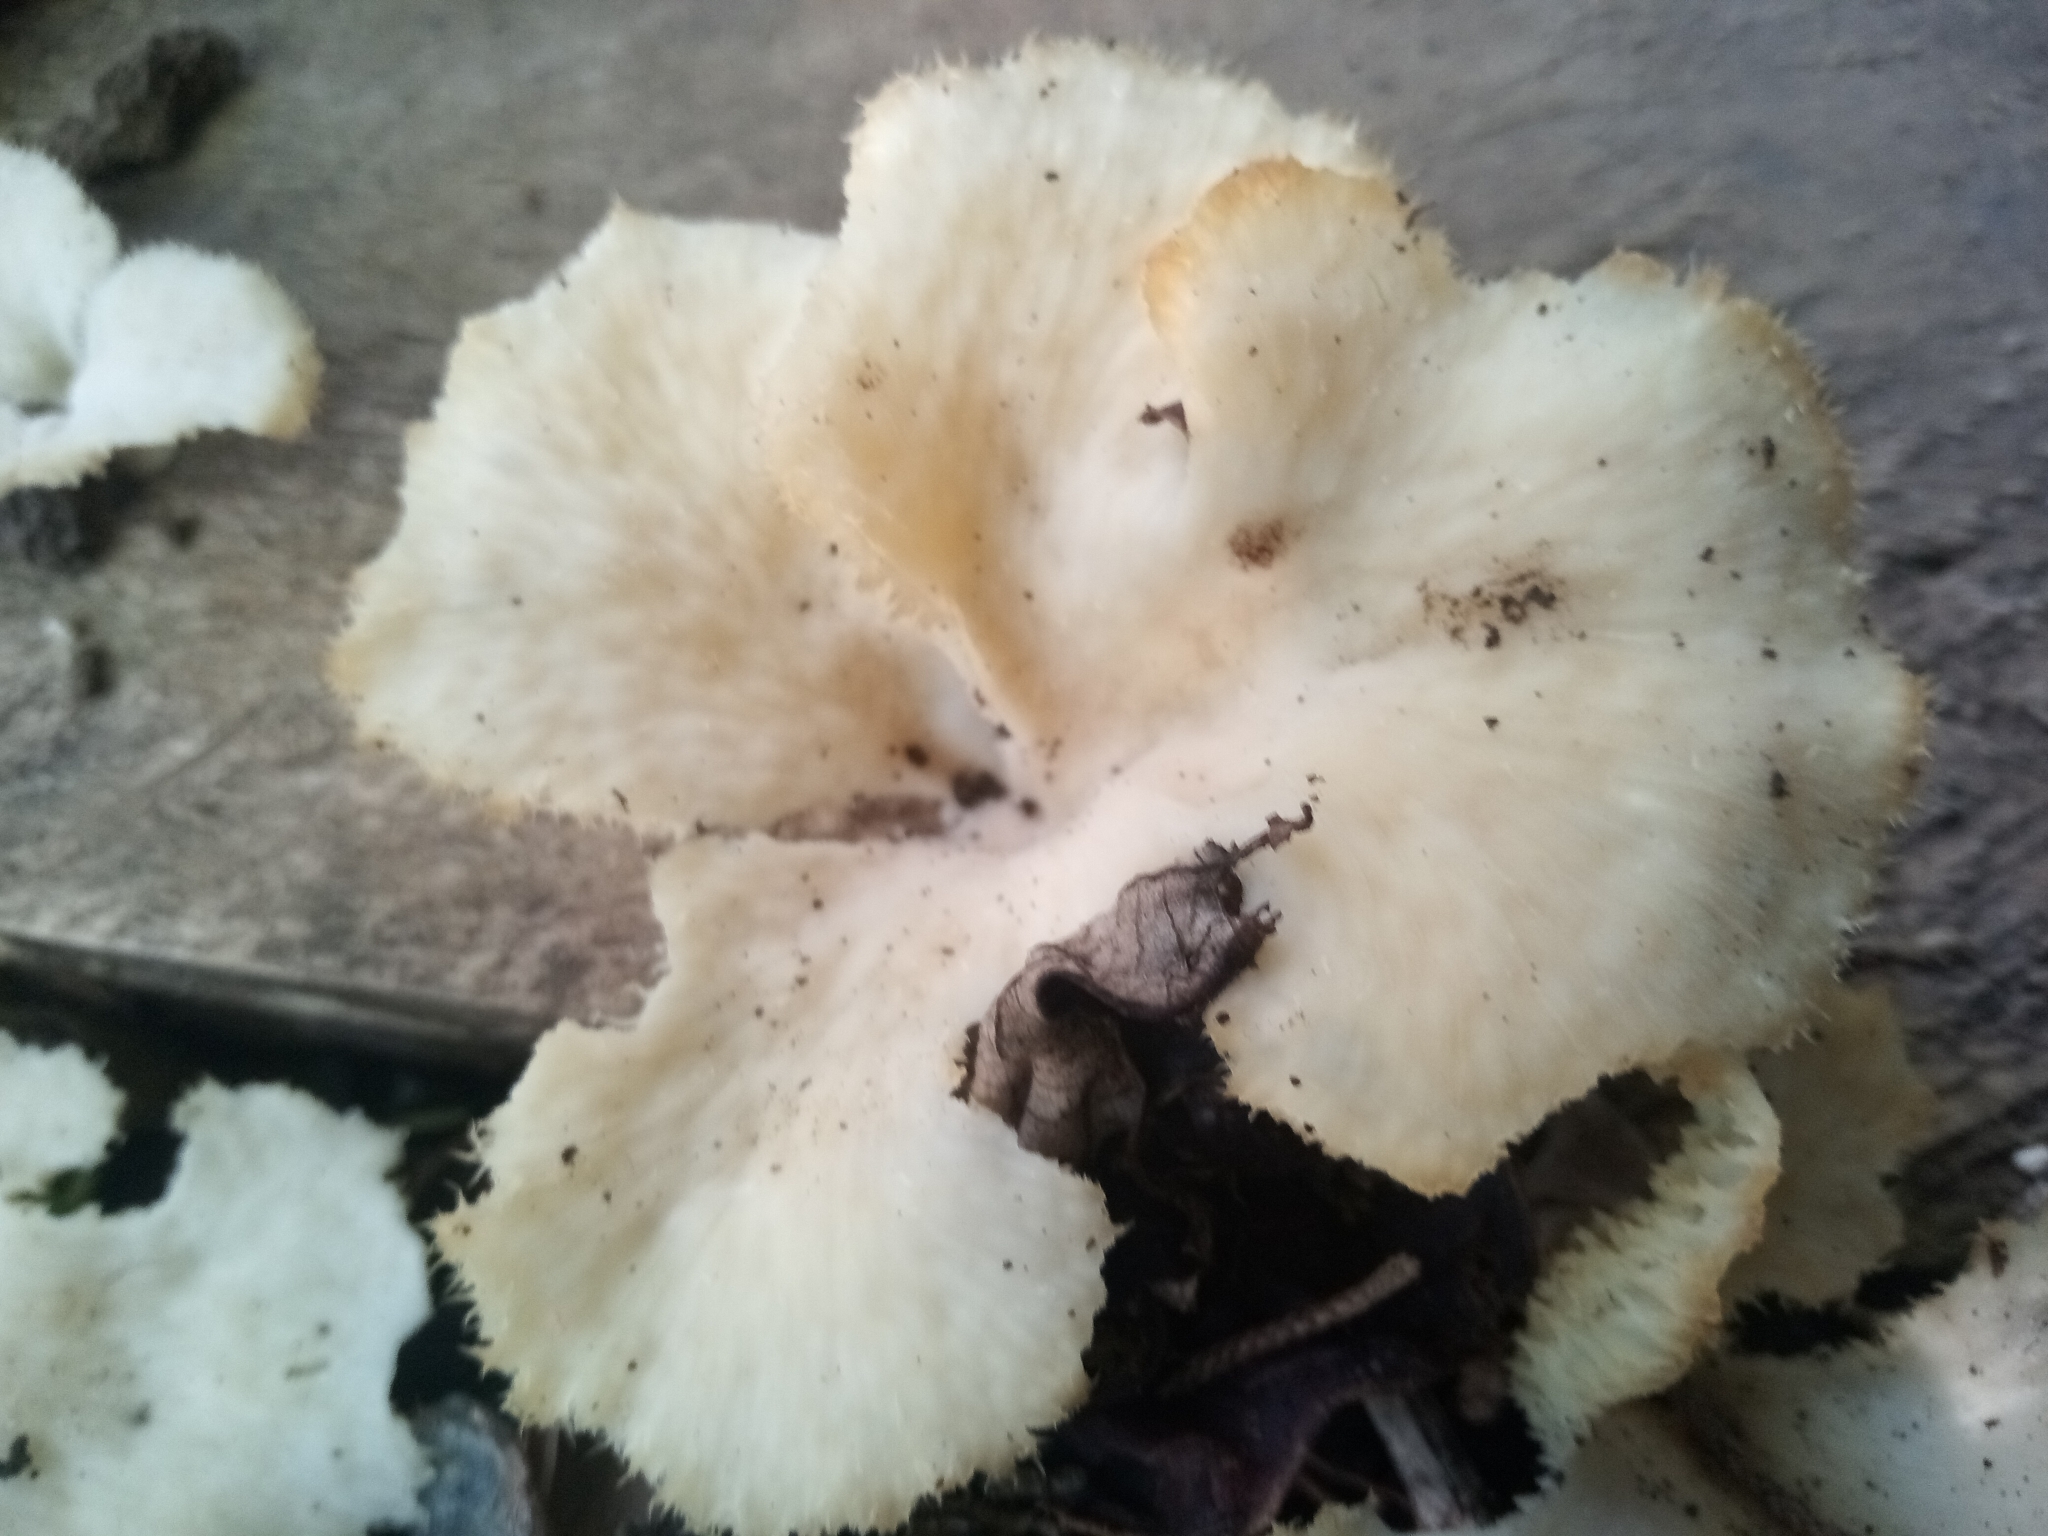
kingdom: Fungi
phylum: Basidiomycota
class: Agaricomycetes
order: Polyporales
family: Polyporaceae
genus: Favolus
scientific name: Favolus tenuiculus
